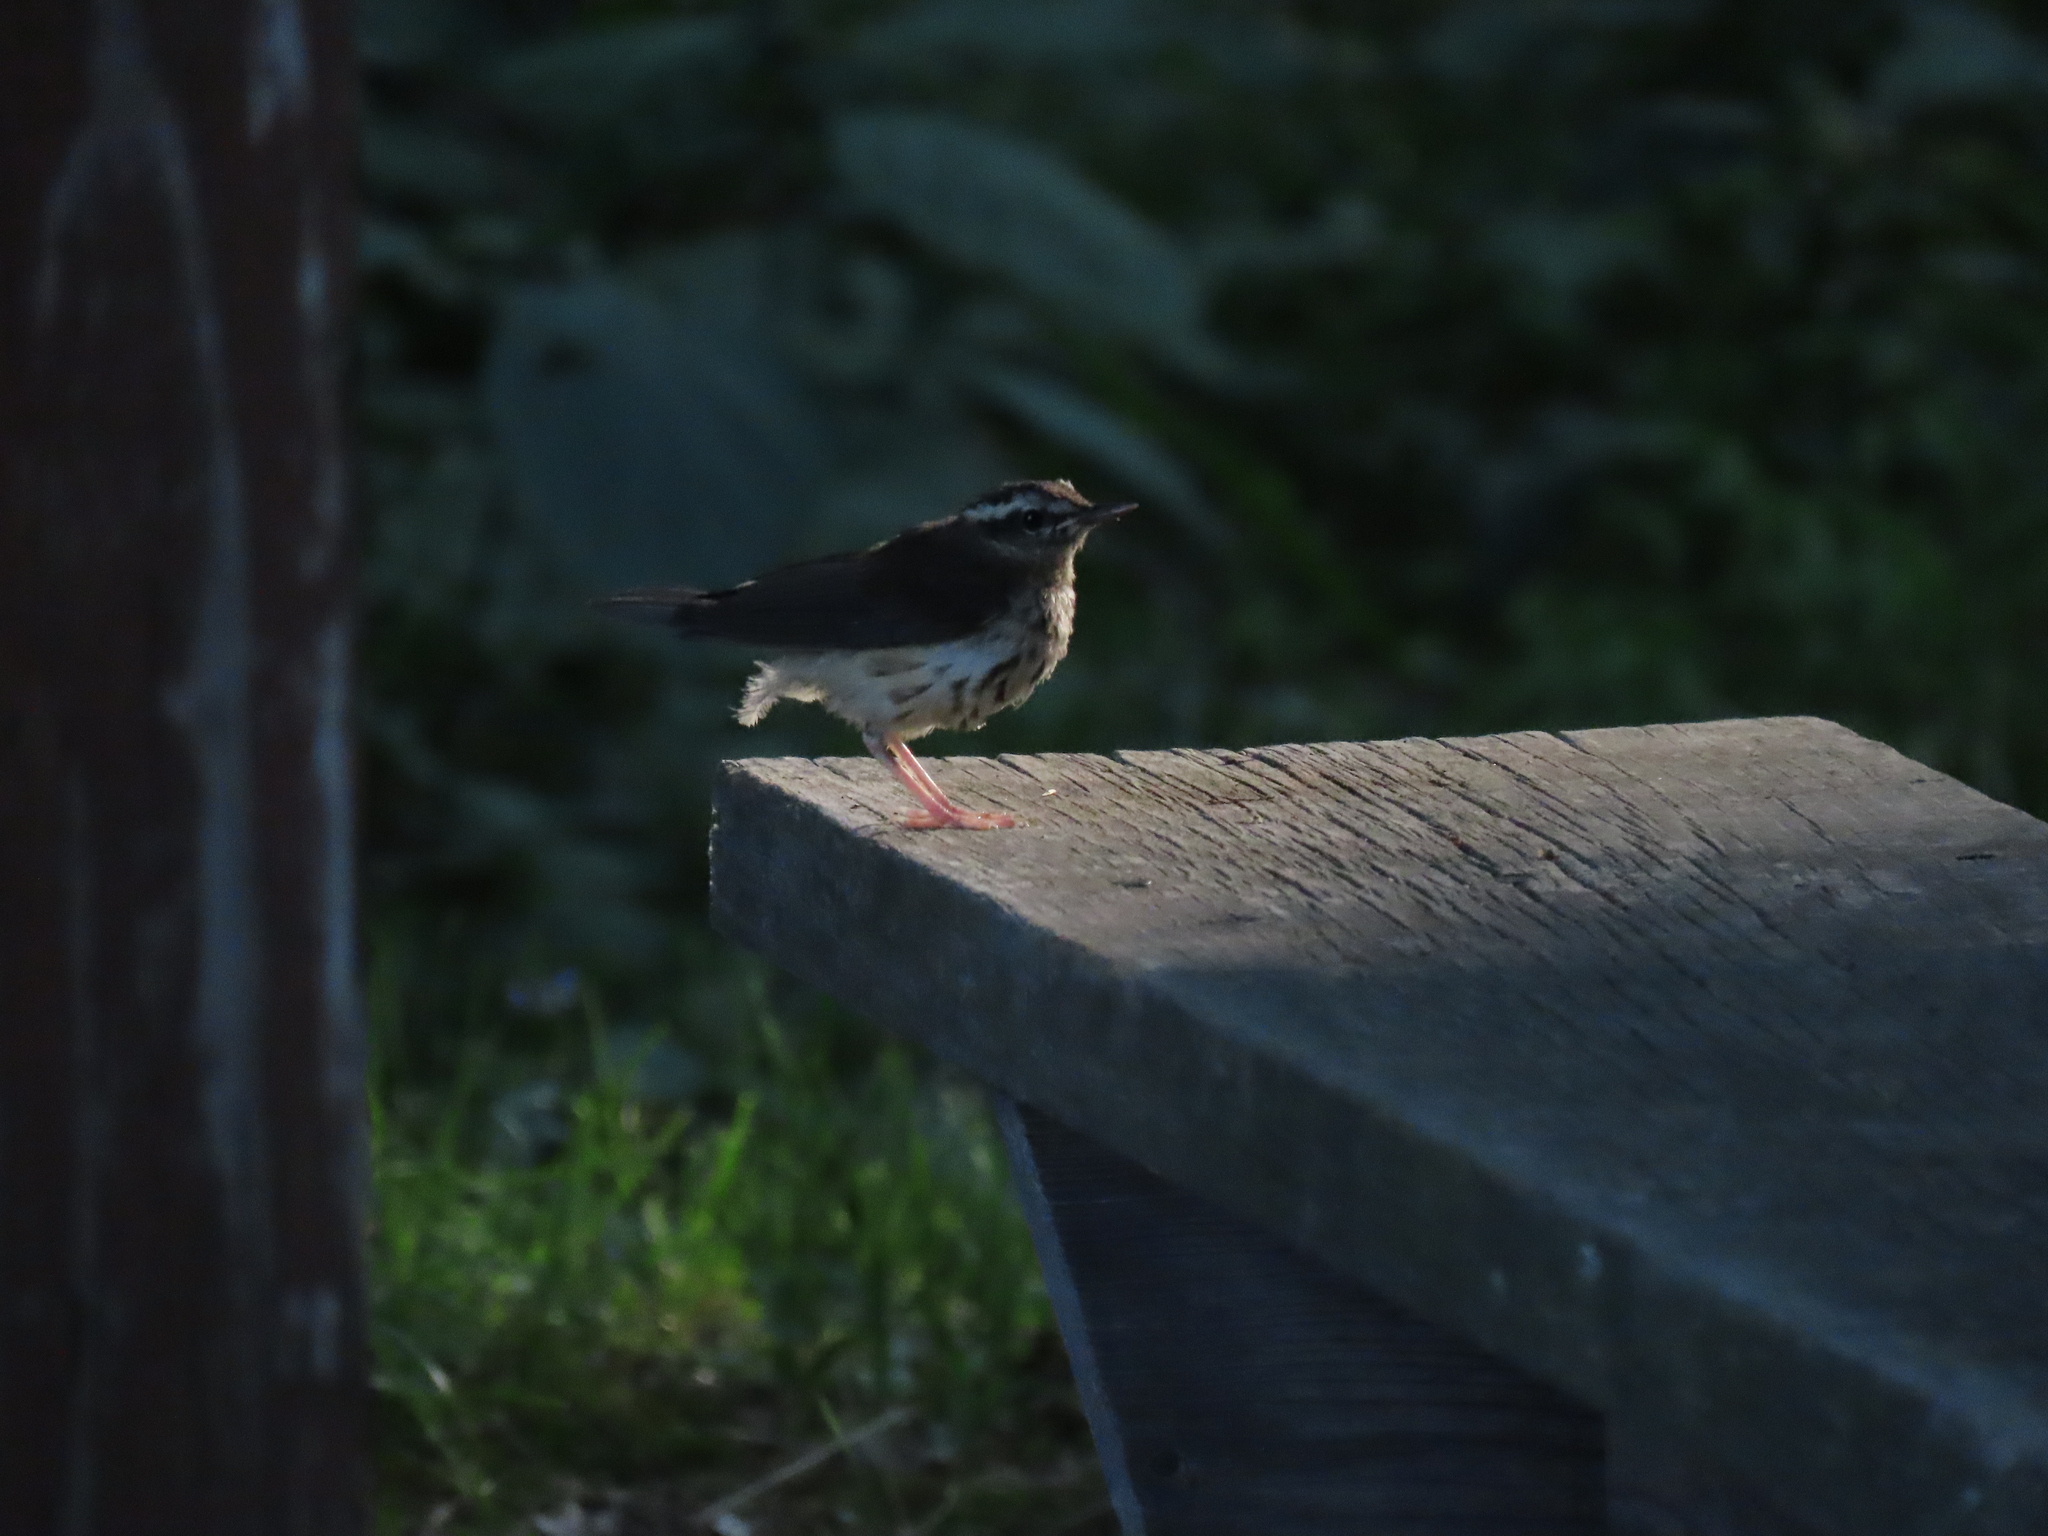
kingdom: Animalia
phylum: Chordata
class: Aves
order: Passeriformes
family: Parulidae
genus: Parkesia
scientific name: Parkesia motacilla
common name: Louisiana waterthrush
